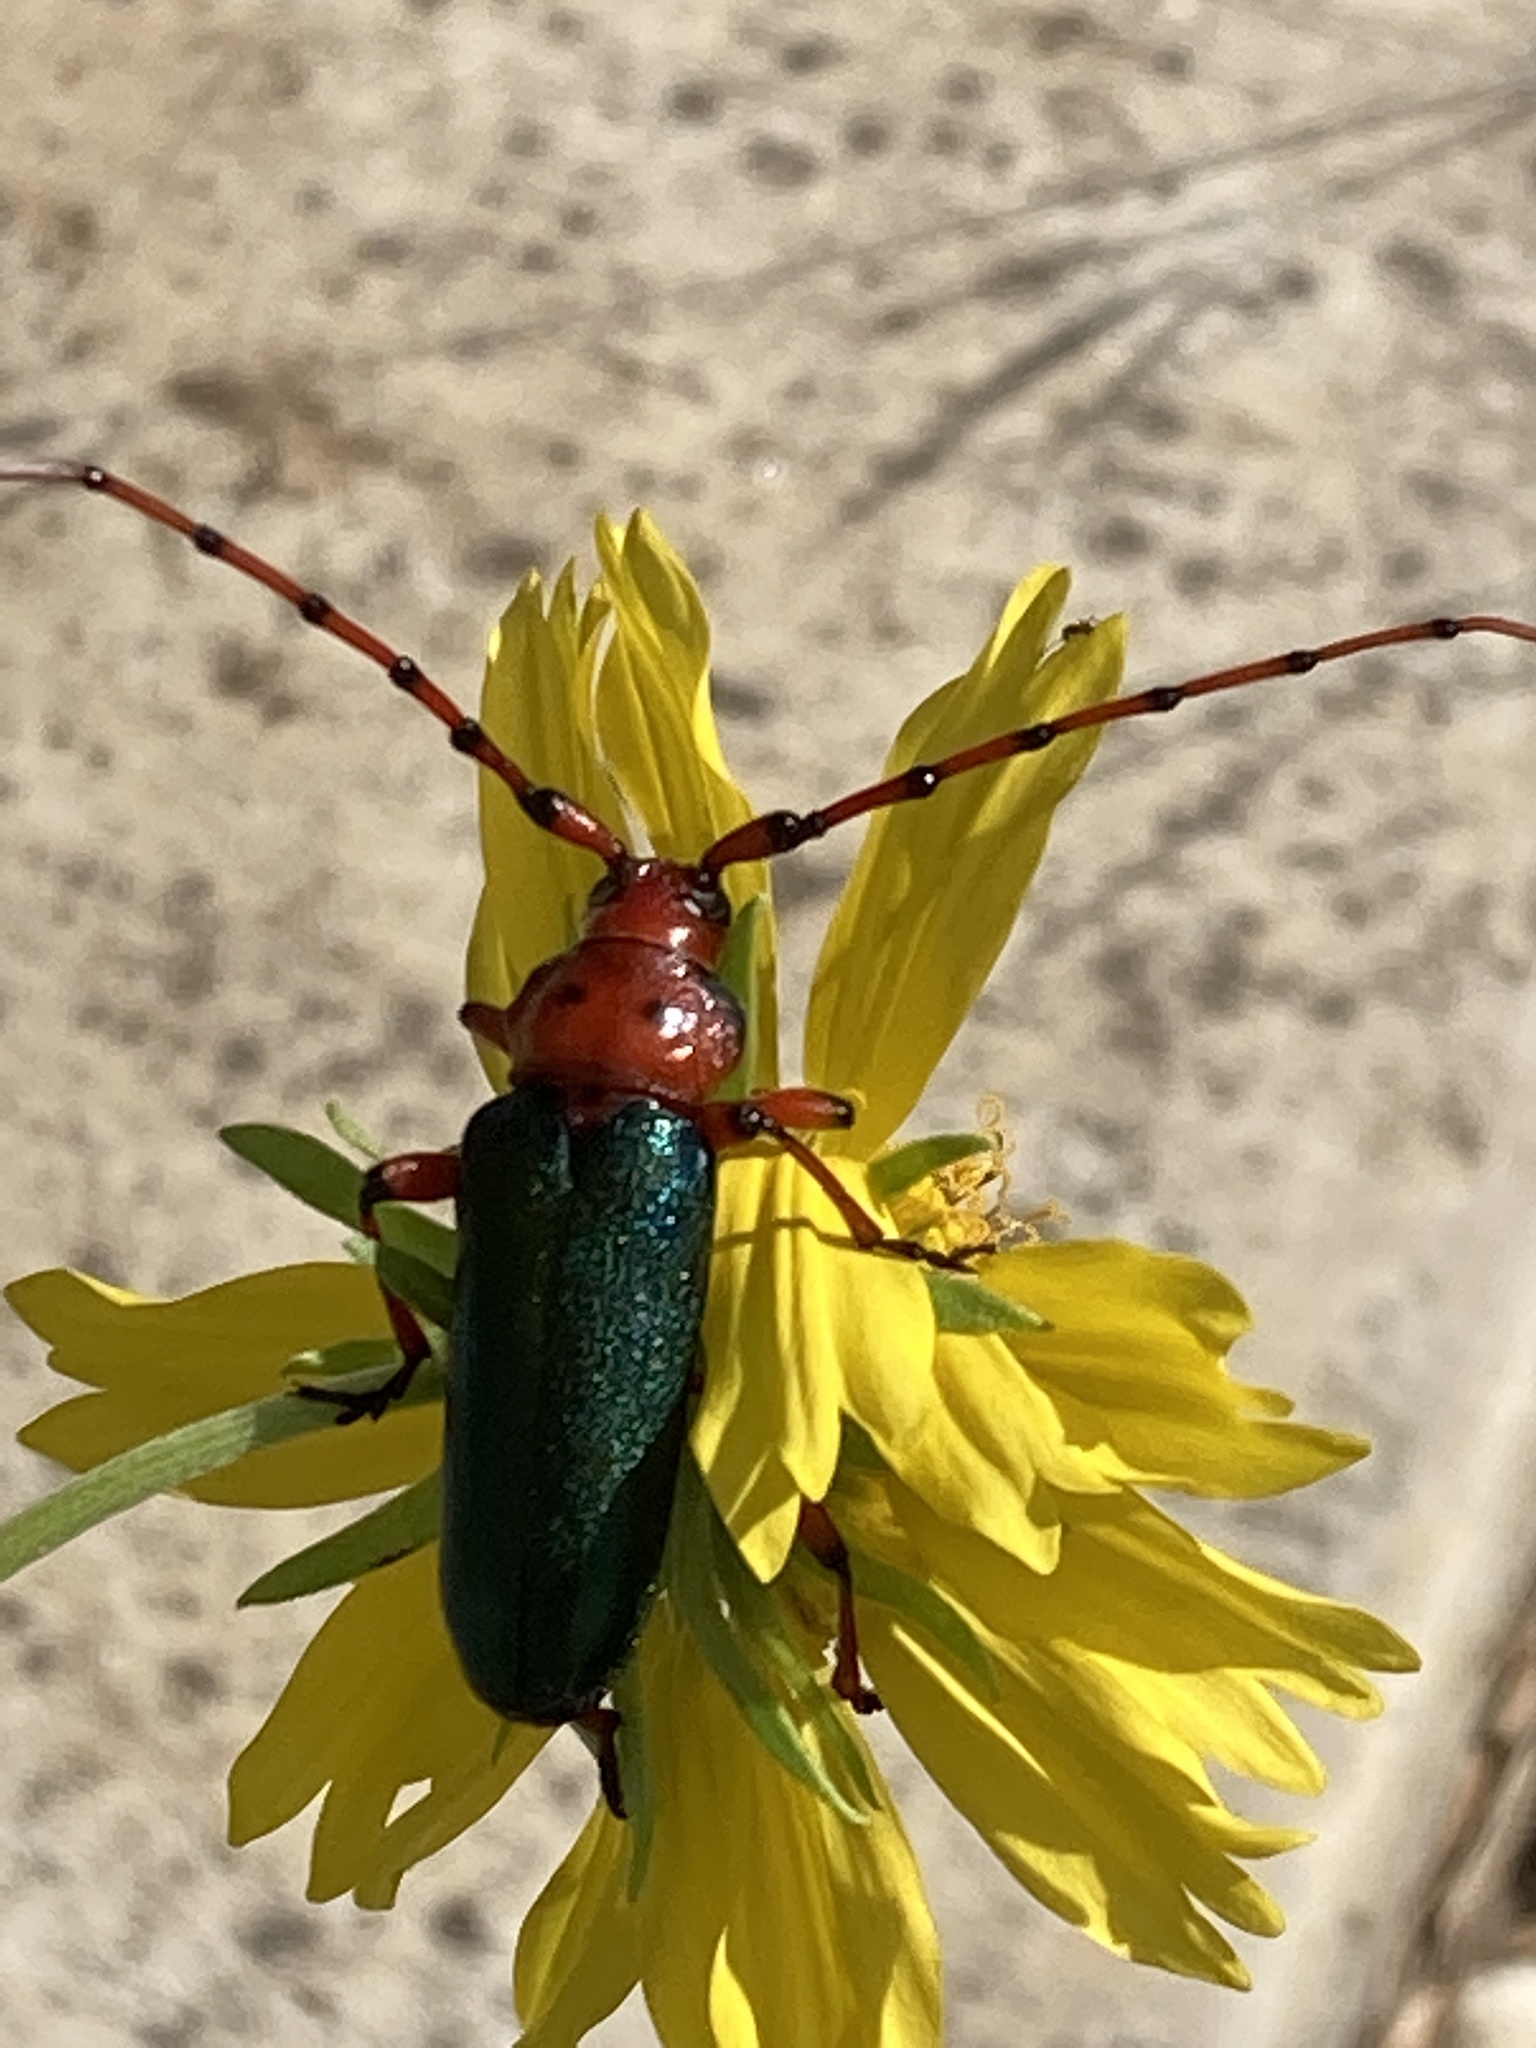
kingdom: Animalia
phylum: Arthropoda
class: Insecta
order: Coleoptera
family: Cerambycidae
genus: Stenaspis
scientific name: Stenaspis verticalis
